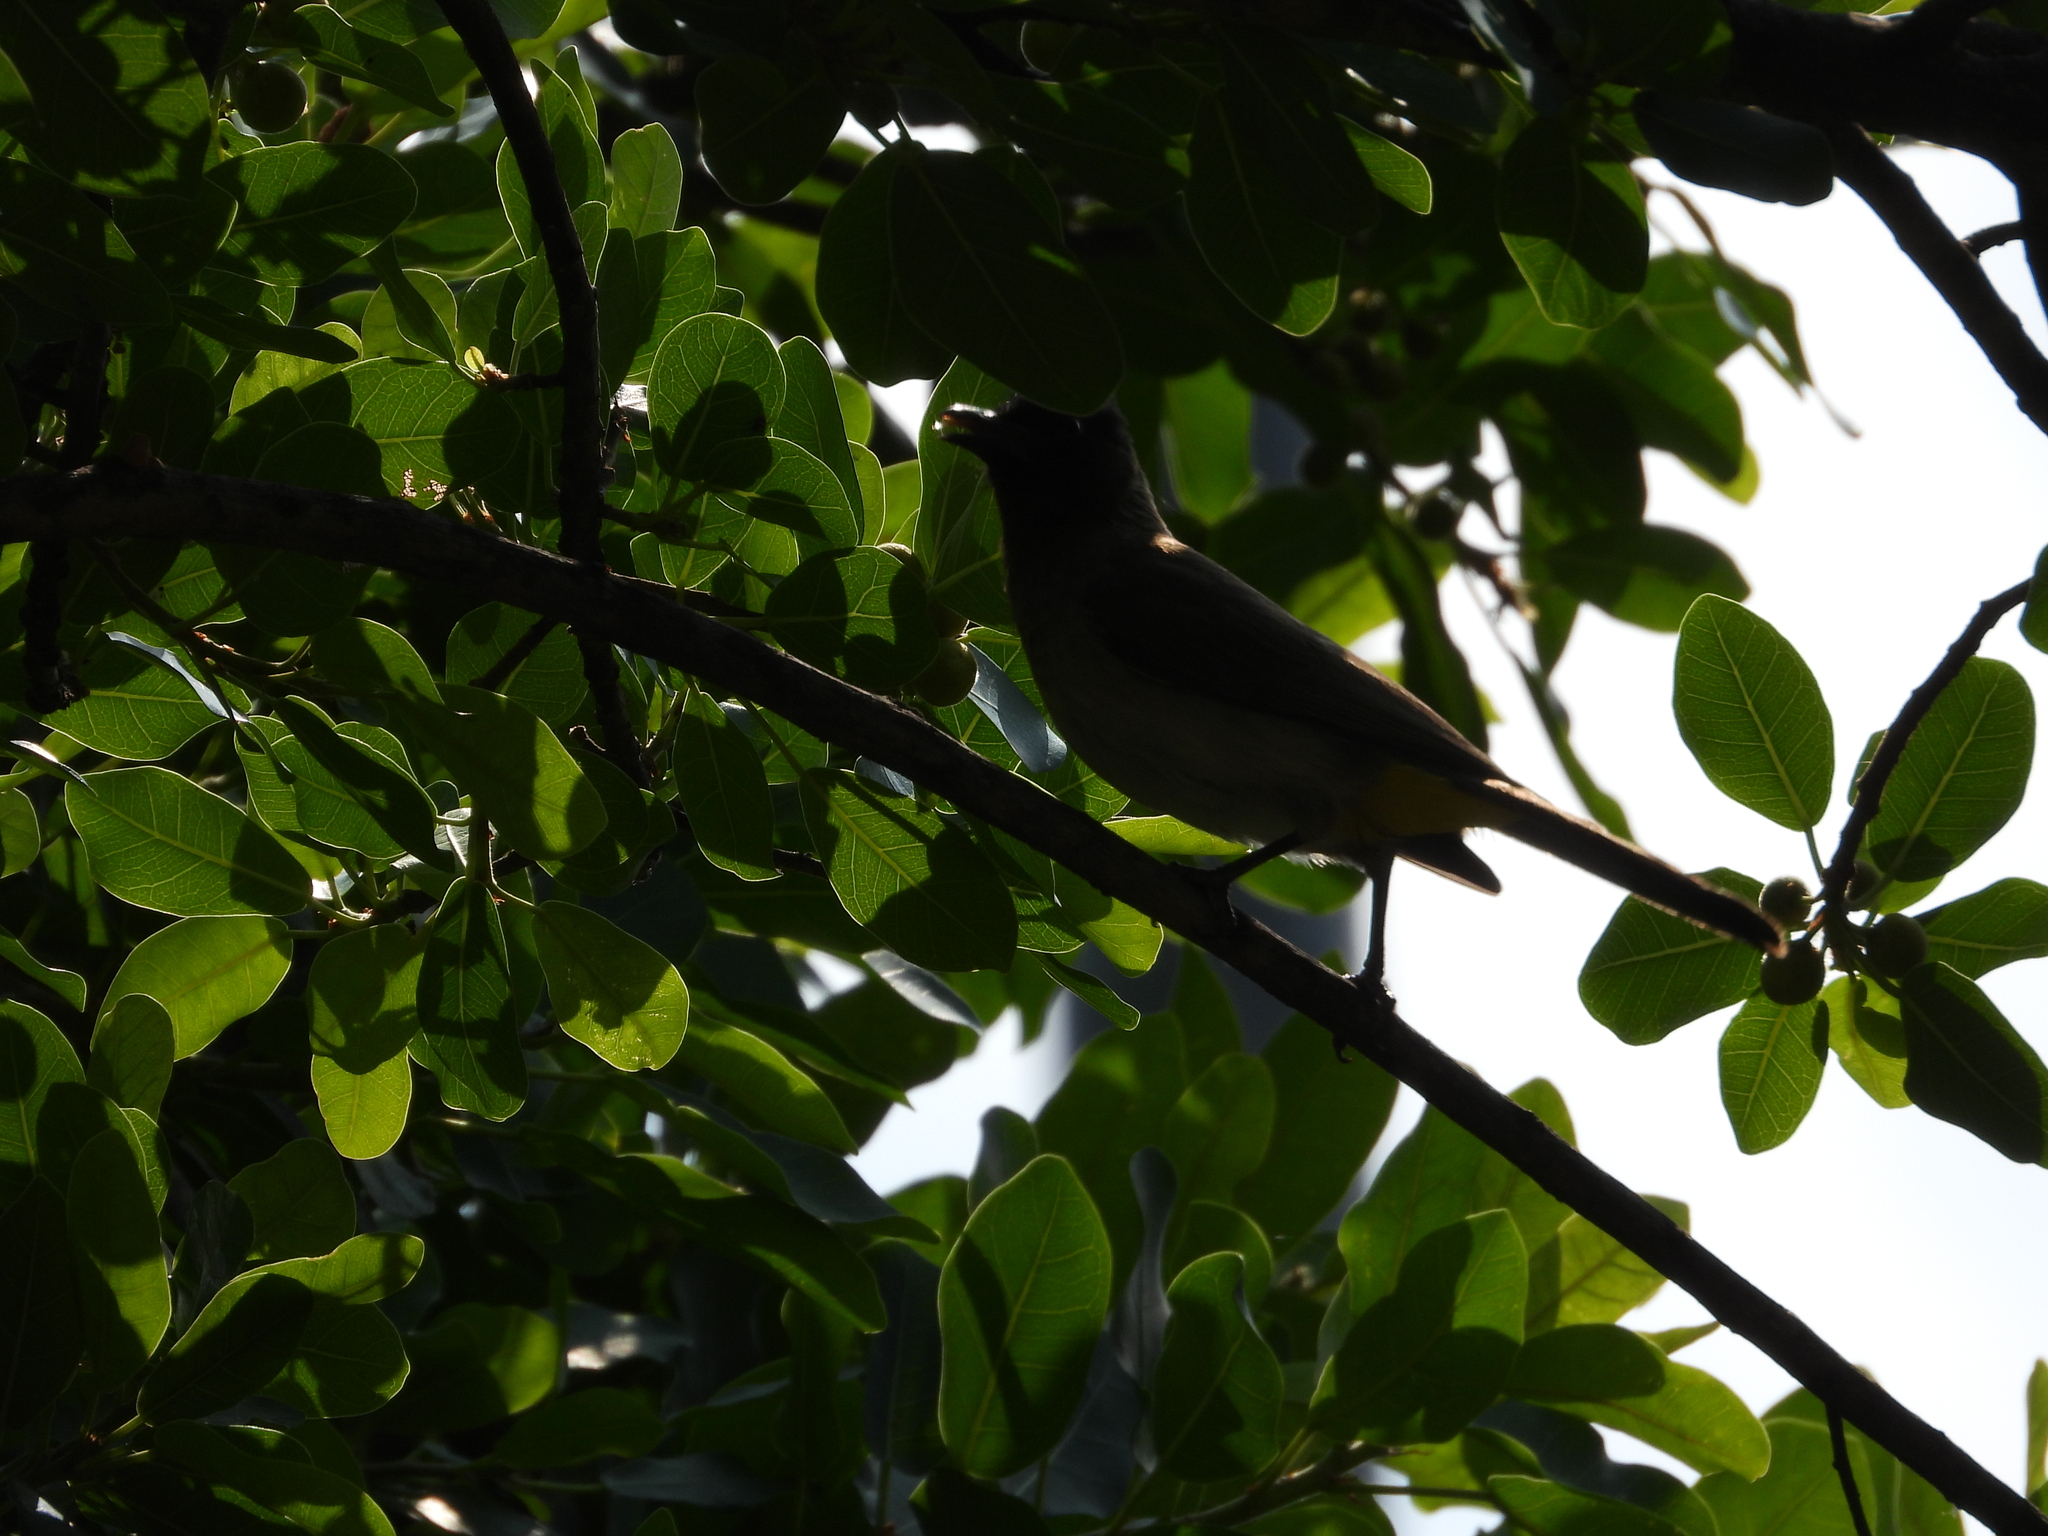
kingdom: Animalia
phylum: Chordata
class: Aves
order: Passeriformes
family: Pycnonotidae
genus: Pycnonotus
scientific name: Pycnonotus barbatus
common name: Common bulbul
